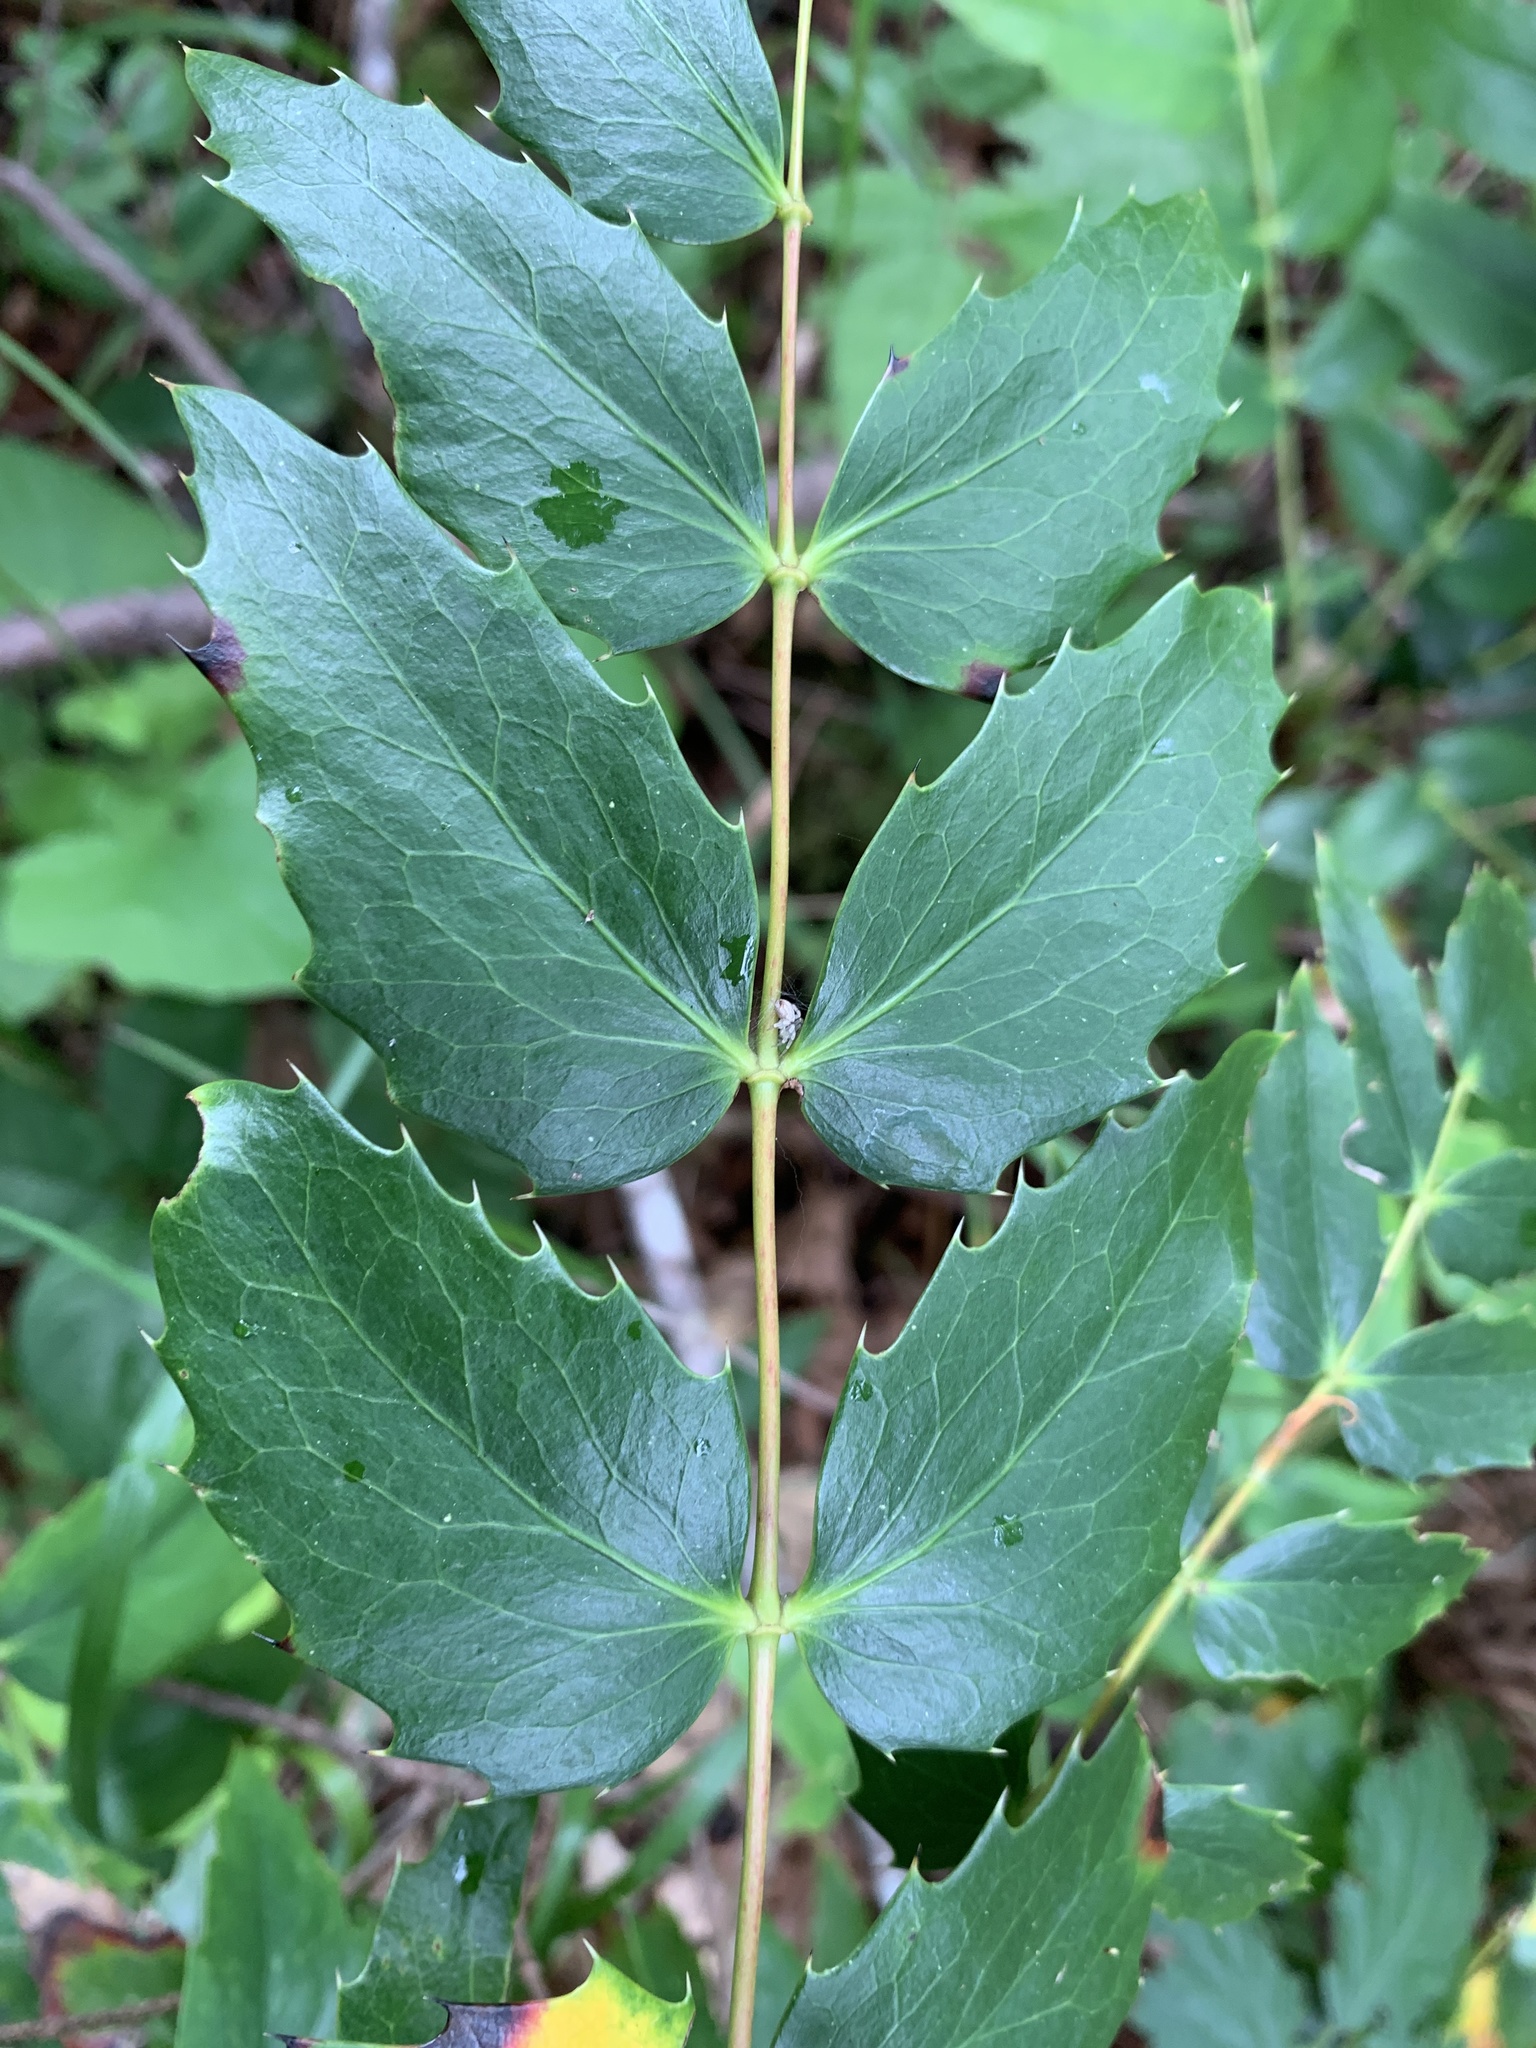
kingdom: Plantae
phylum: Tracheophyta
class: Magnoliopsida
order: Ranunculales
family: Berberidaceae
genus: Mahonia
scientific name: Mahonia nervosa
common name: Cascade oregon-grape
